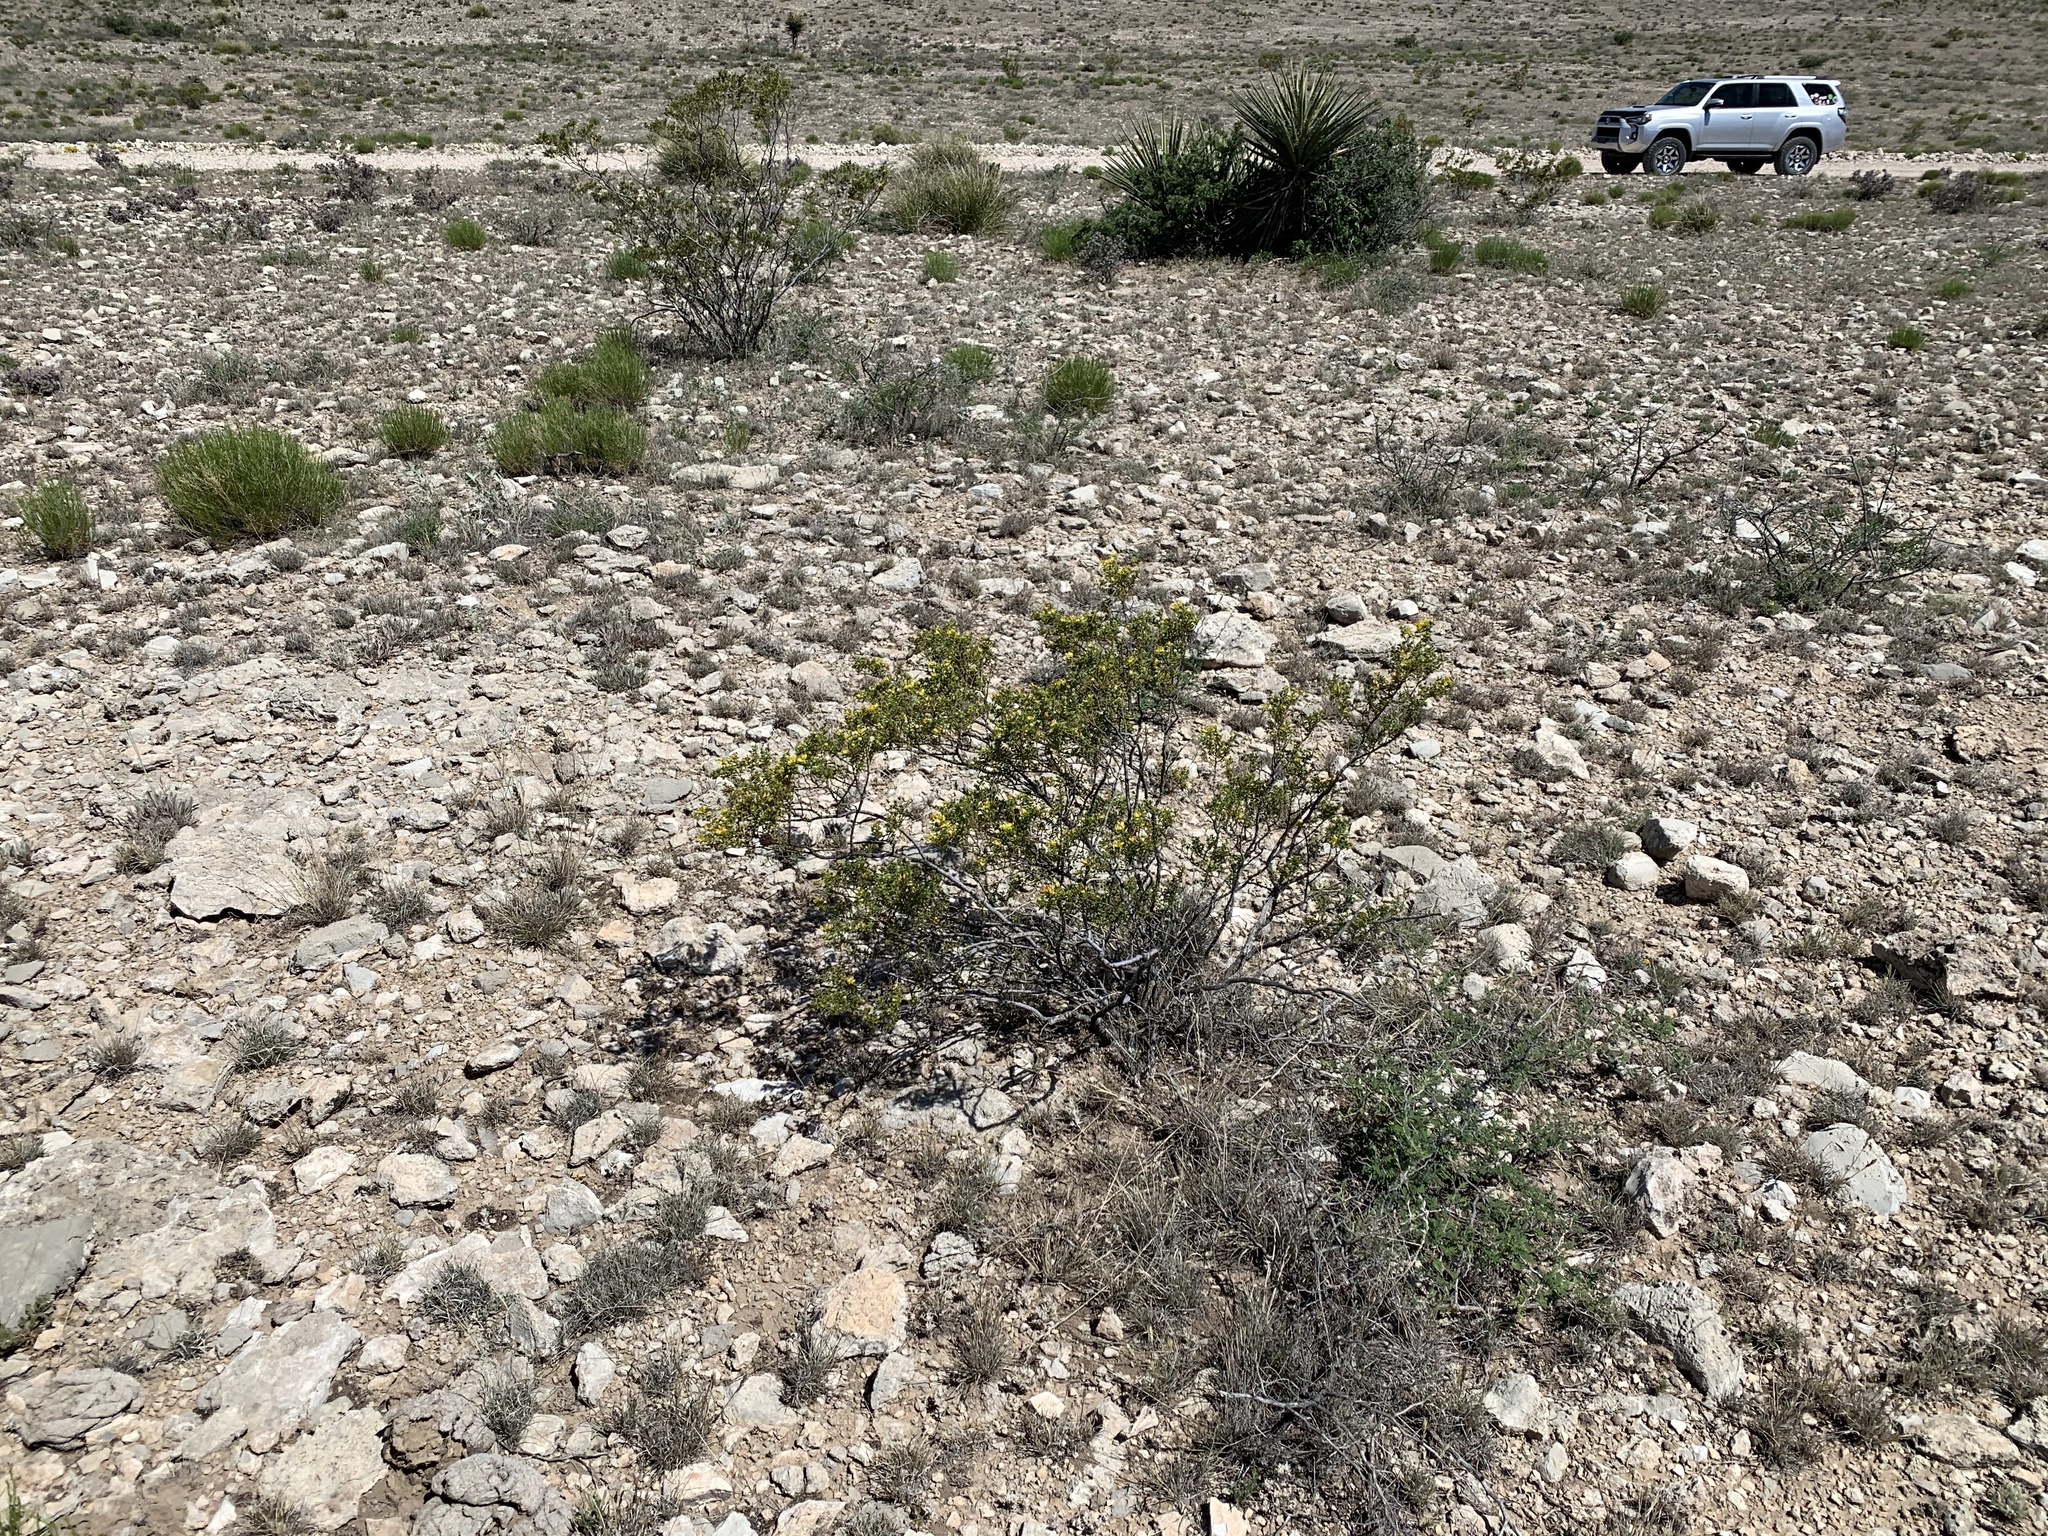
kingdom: Plantae
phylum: Tracheophyta
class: Magnoliopsida
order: Zygophyllales
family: Zygophyllaceae
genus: Larrea
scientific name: Larrea tridentata
